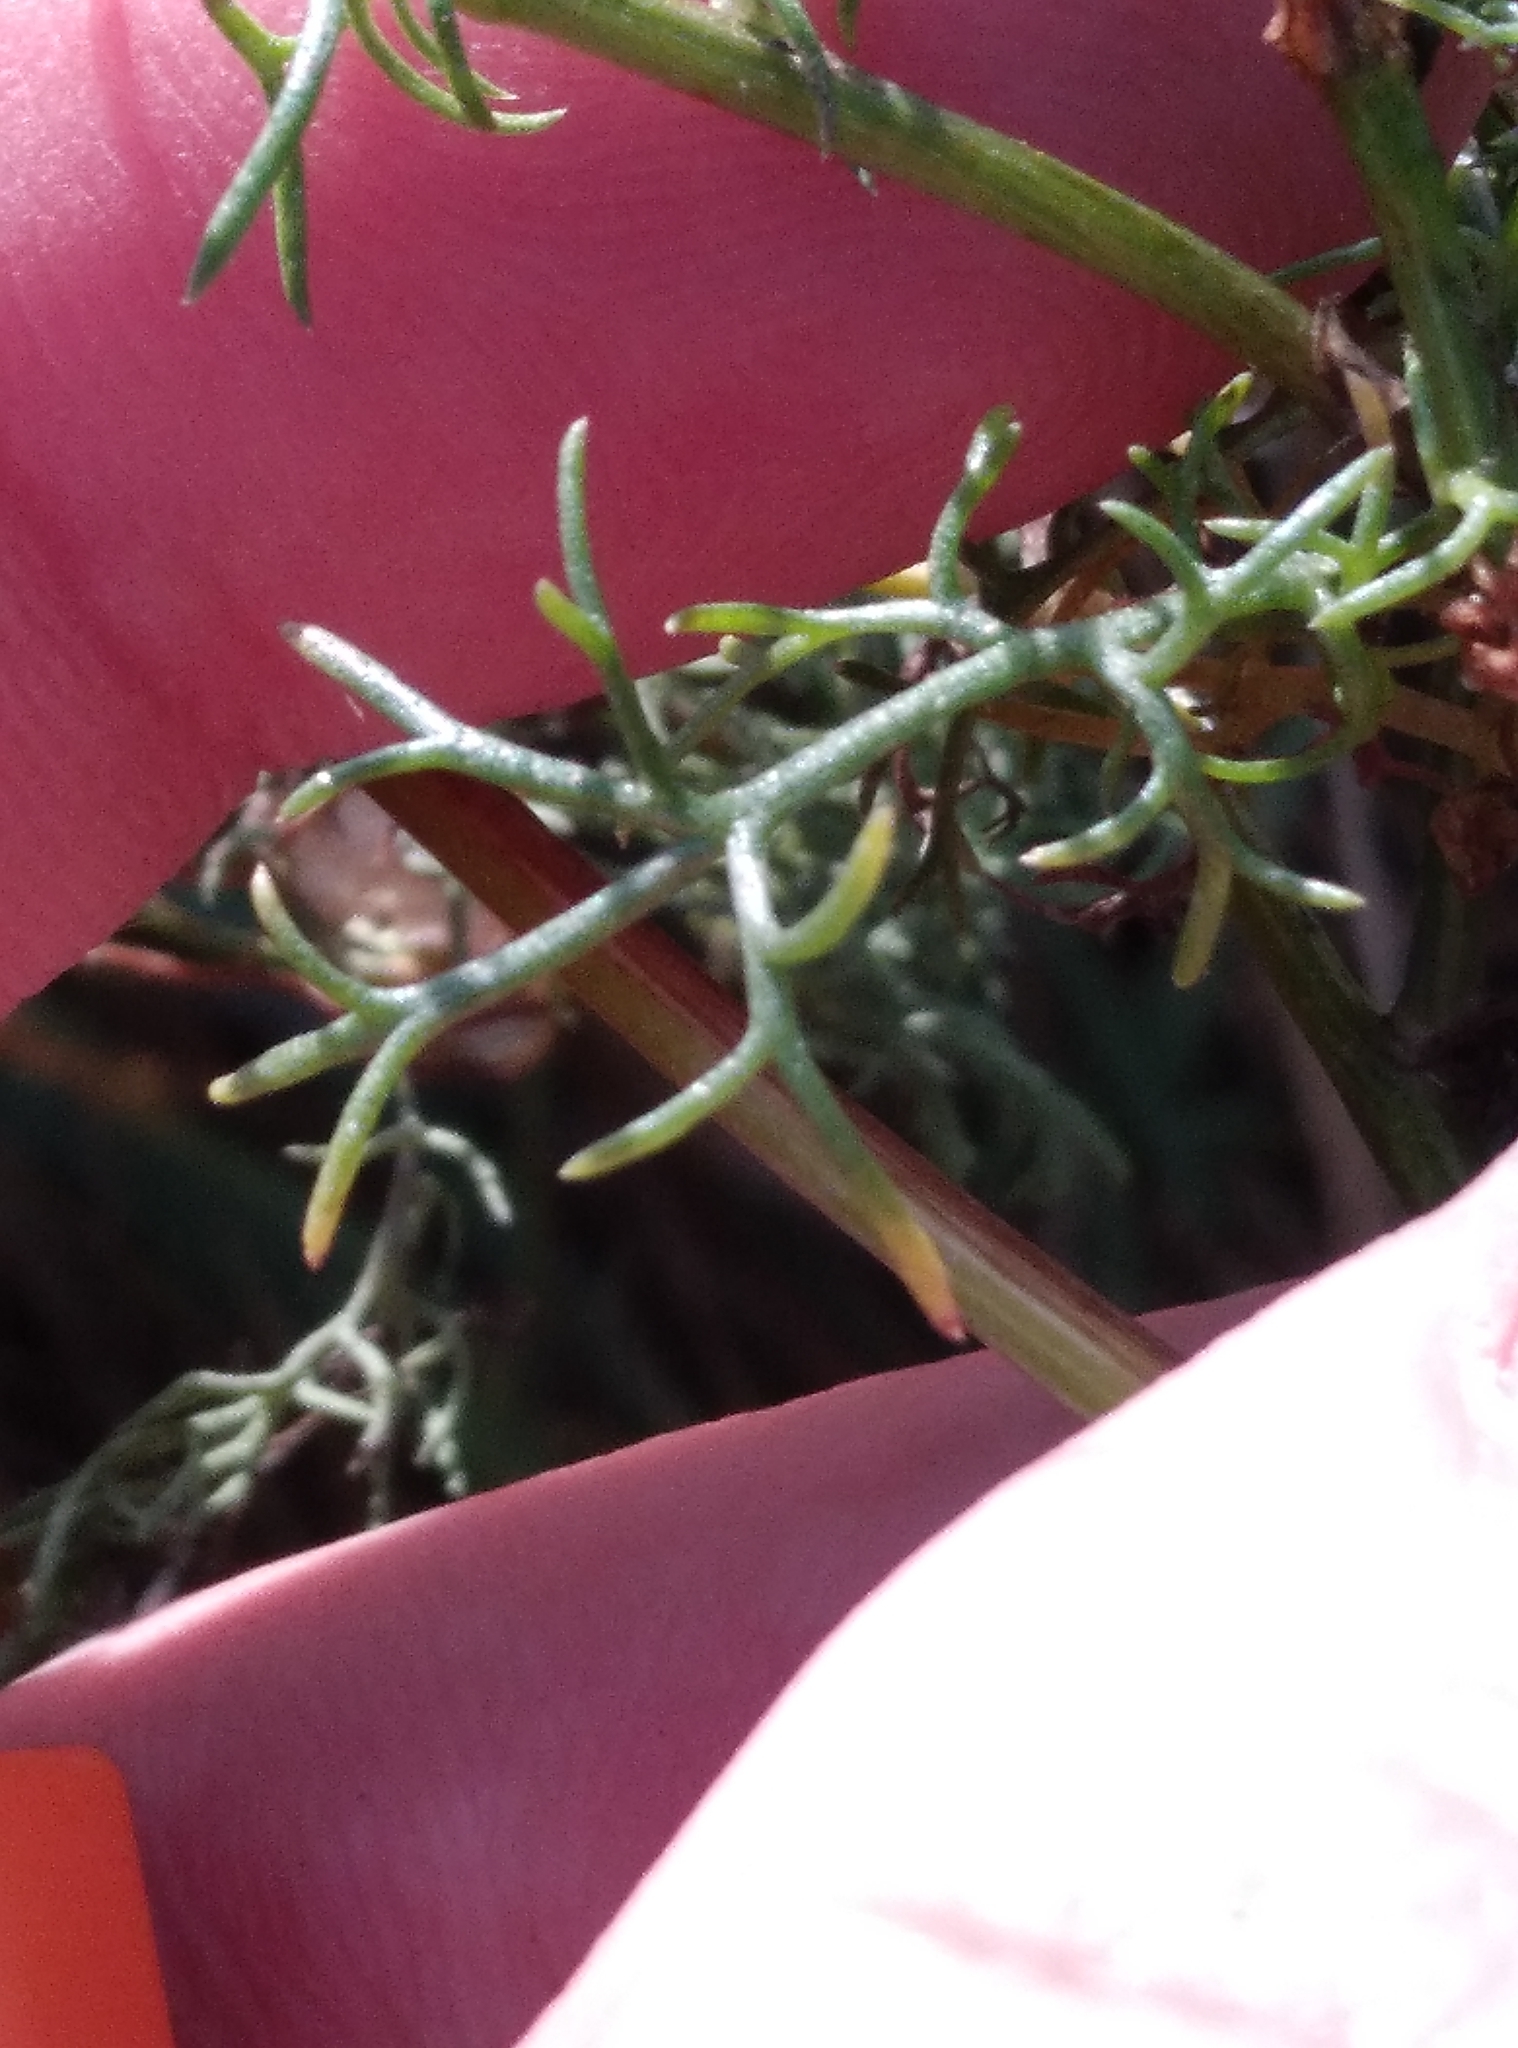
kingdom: Plantae
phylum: Tracheophyta
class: Magnoliopsida
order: Asterales
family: Asteraceae
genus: Tripleurospermum
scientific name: Tripleurospermum inodorum
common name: Scentless mayweed
